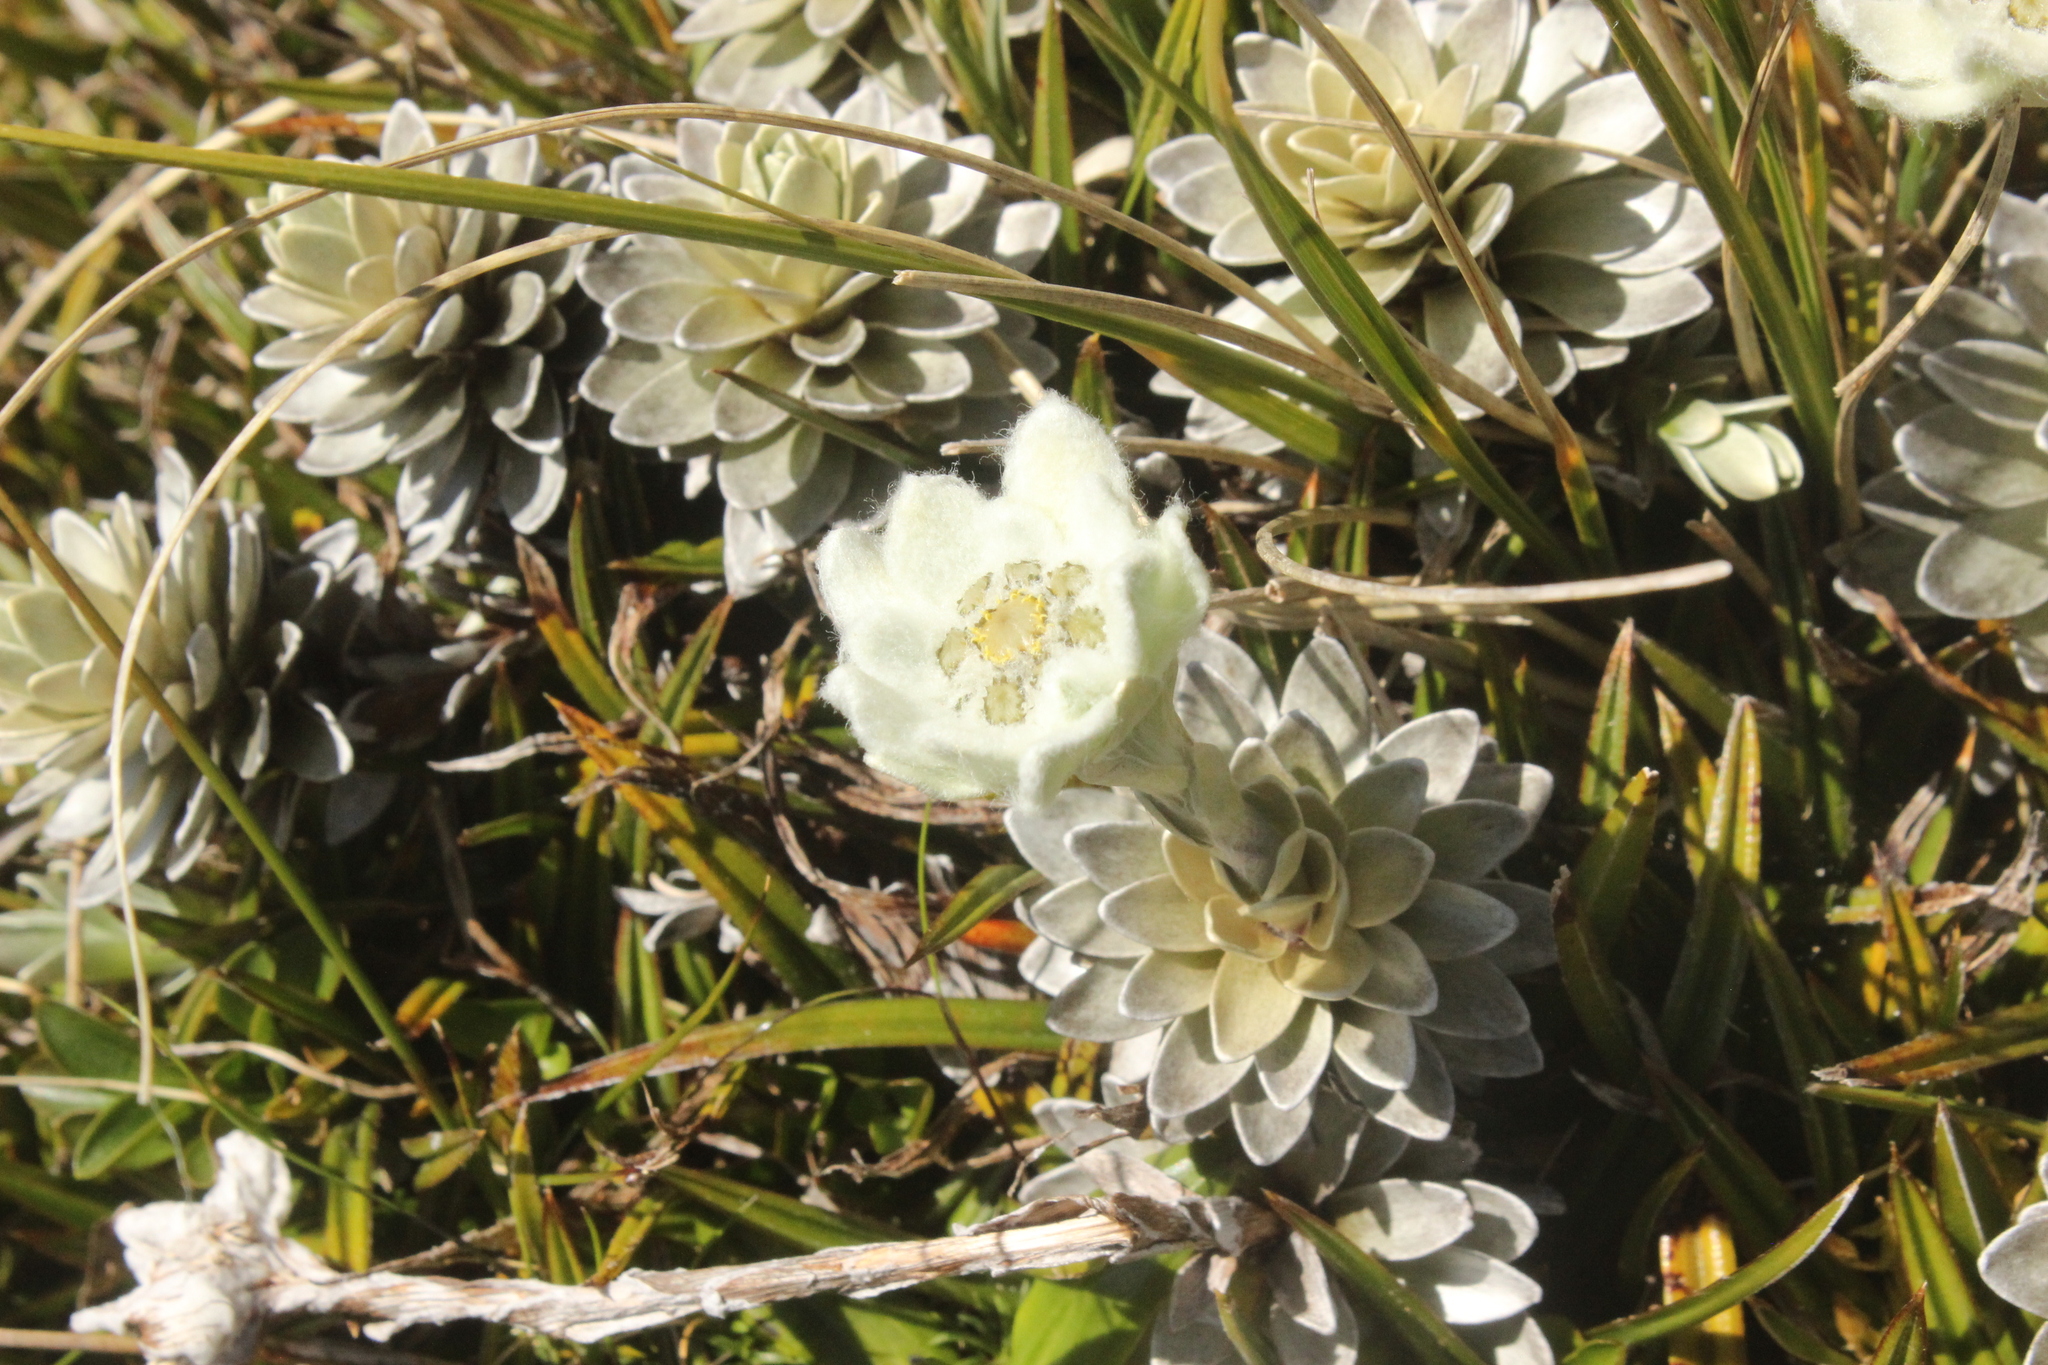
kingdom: Plantae
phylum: Tracheophyta
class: Magnoliopsida
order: Asterales
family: Asteraceae
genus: Leucogenes
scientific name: Leucogenes leontopodium
